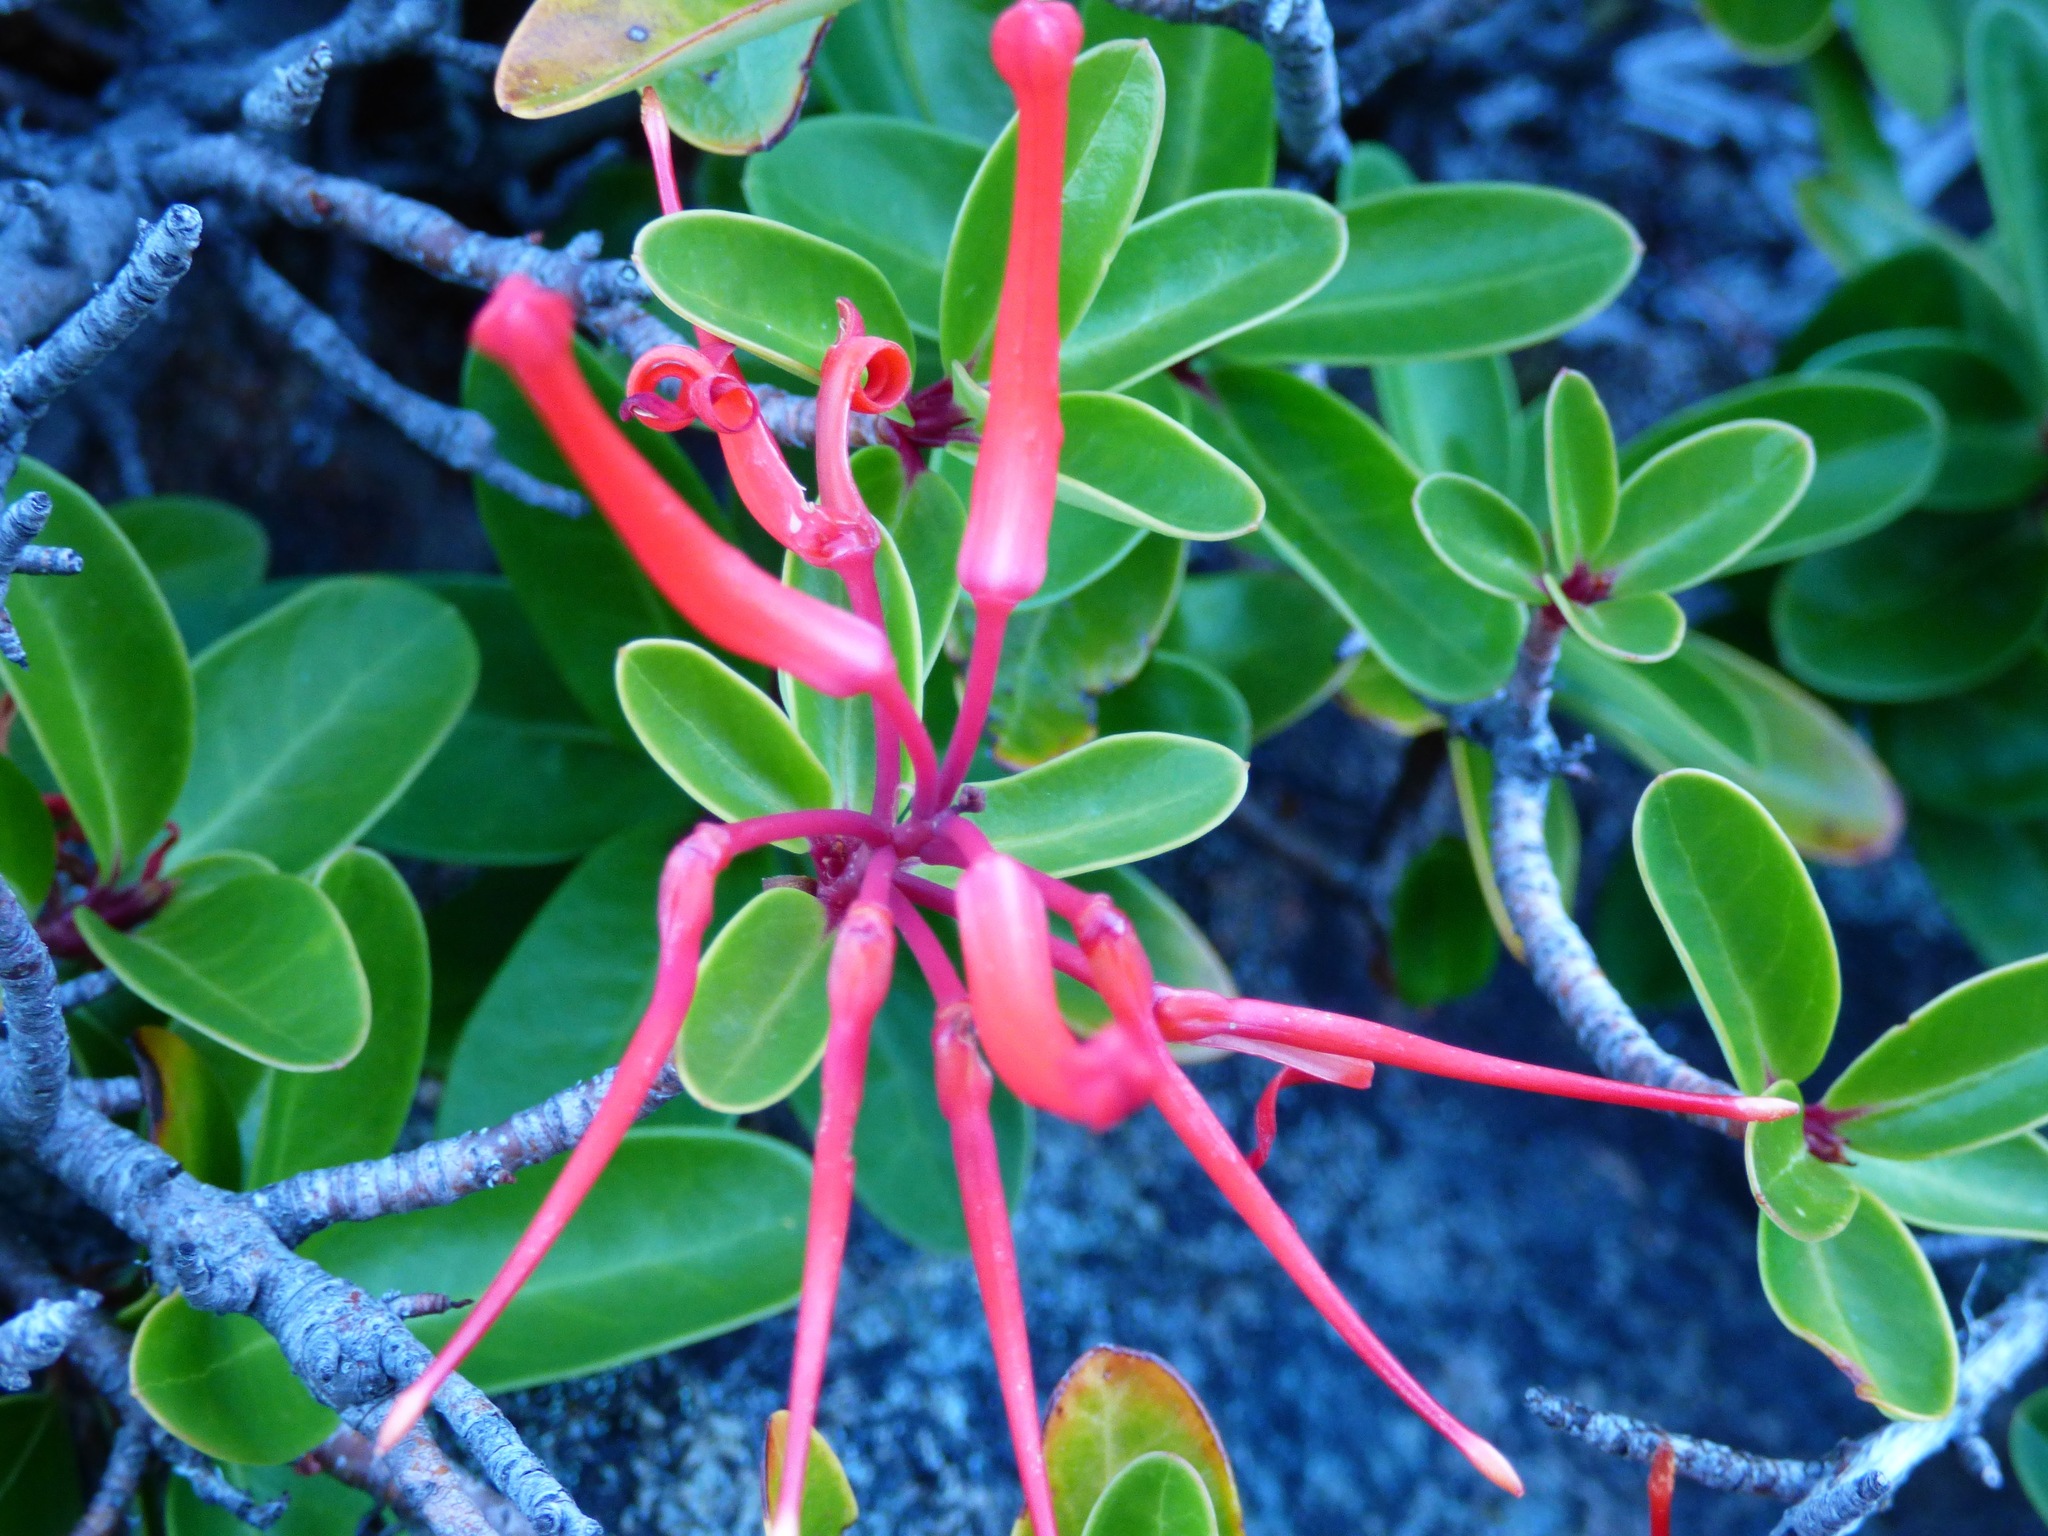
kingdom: Plantae
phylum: Tracheophyta
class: Magnoliopsida
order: Proteales
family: Proteaceae
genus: Embothrium
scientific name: Embothrium coccineum
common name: Chilean firebush
